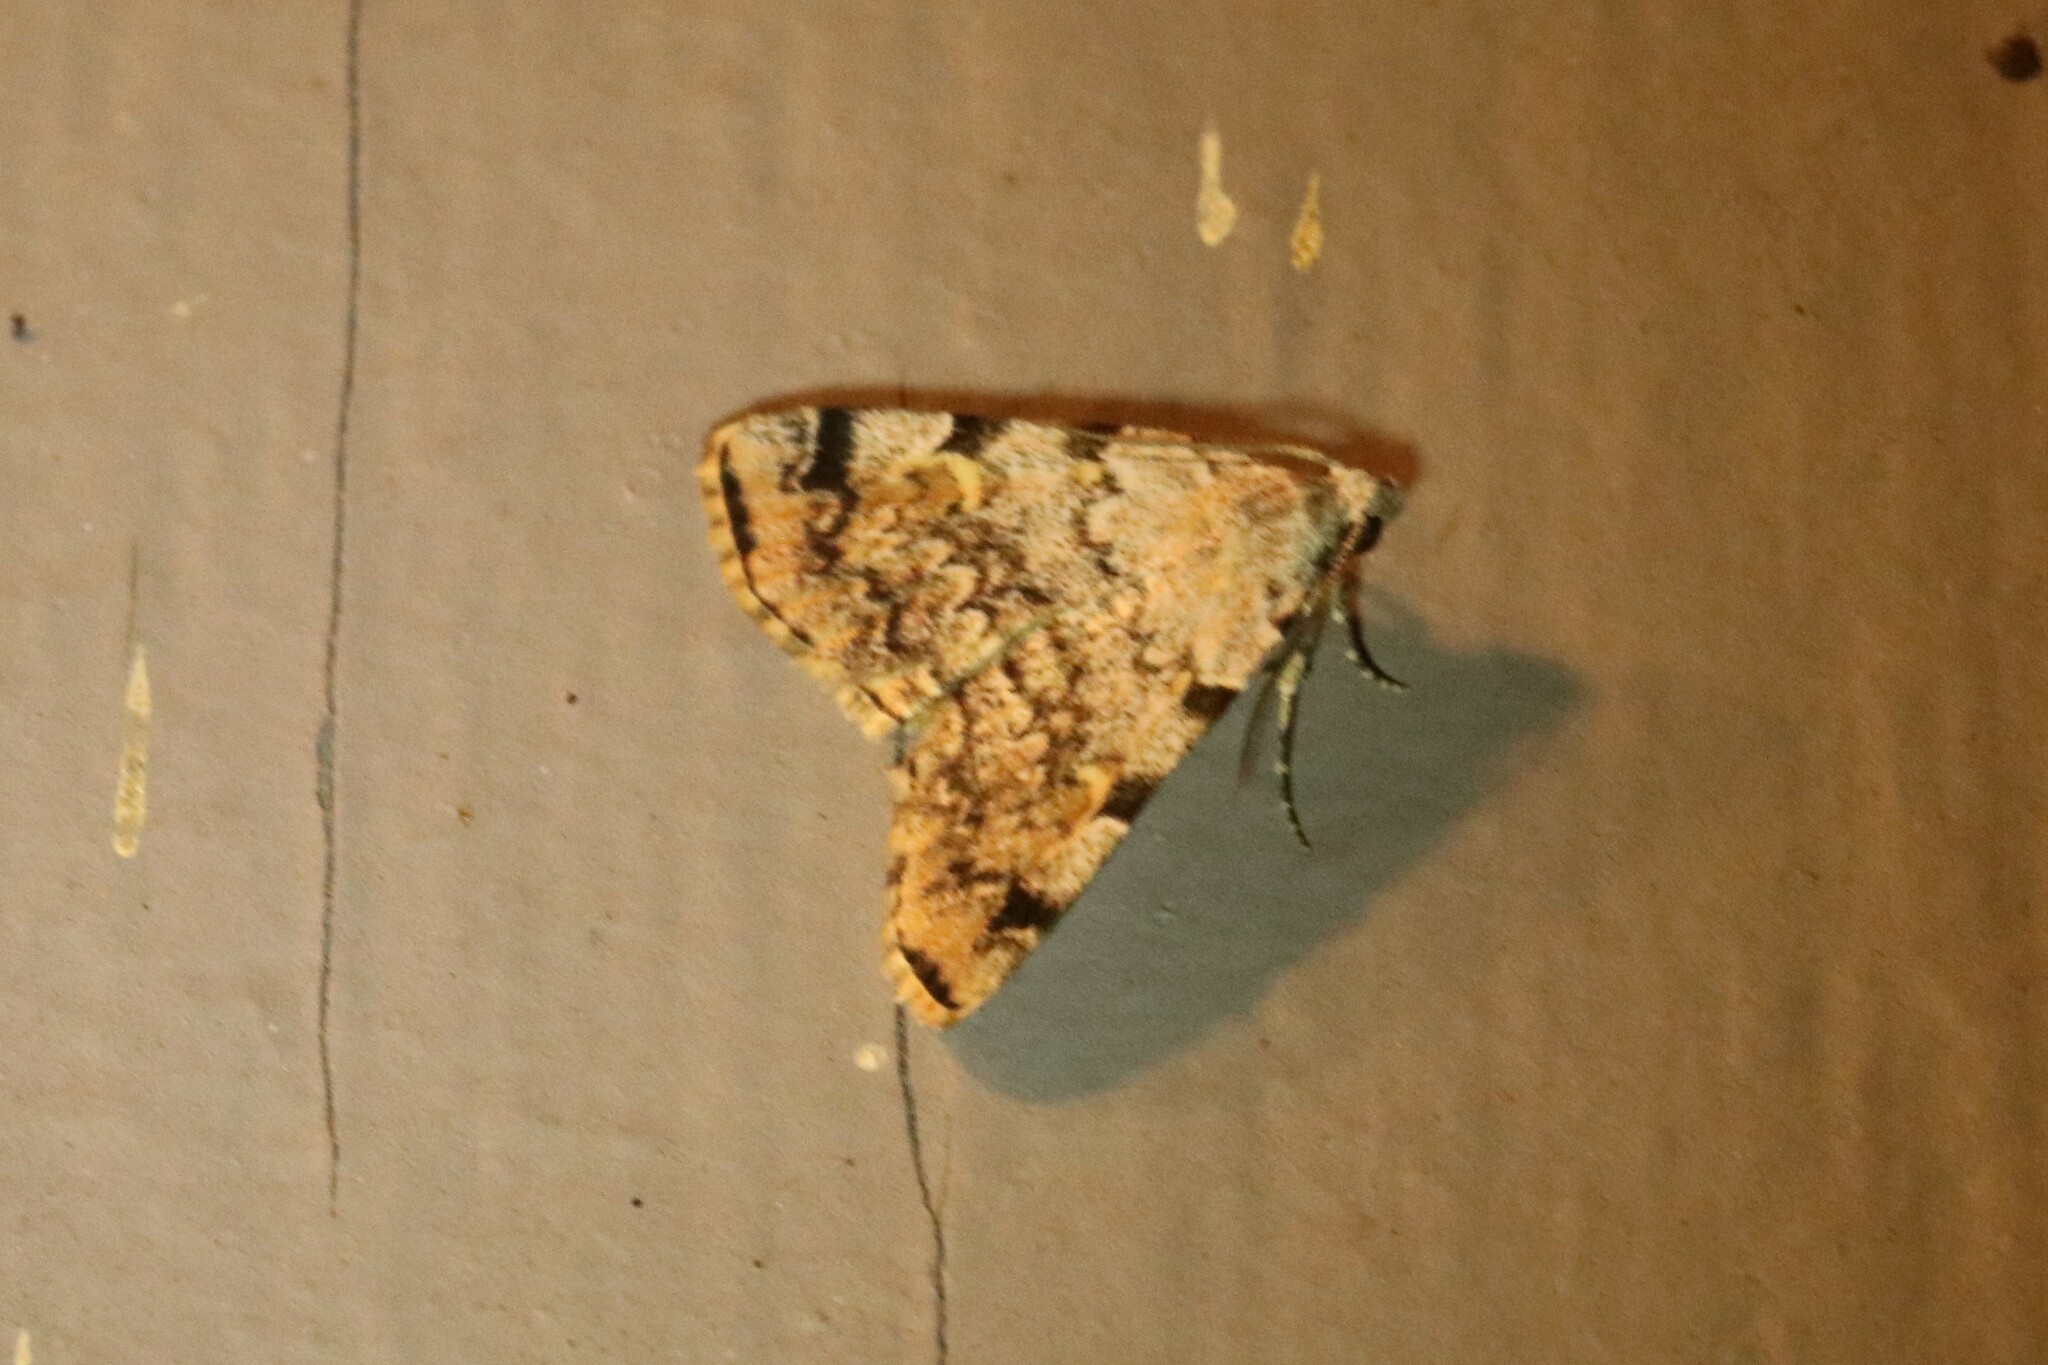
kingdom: Animalia
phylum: Arthropoda
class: Insecta
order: Lepidoptera
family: Erebidae
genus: Idia
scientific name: Idia americalis
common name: American idia moth
